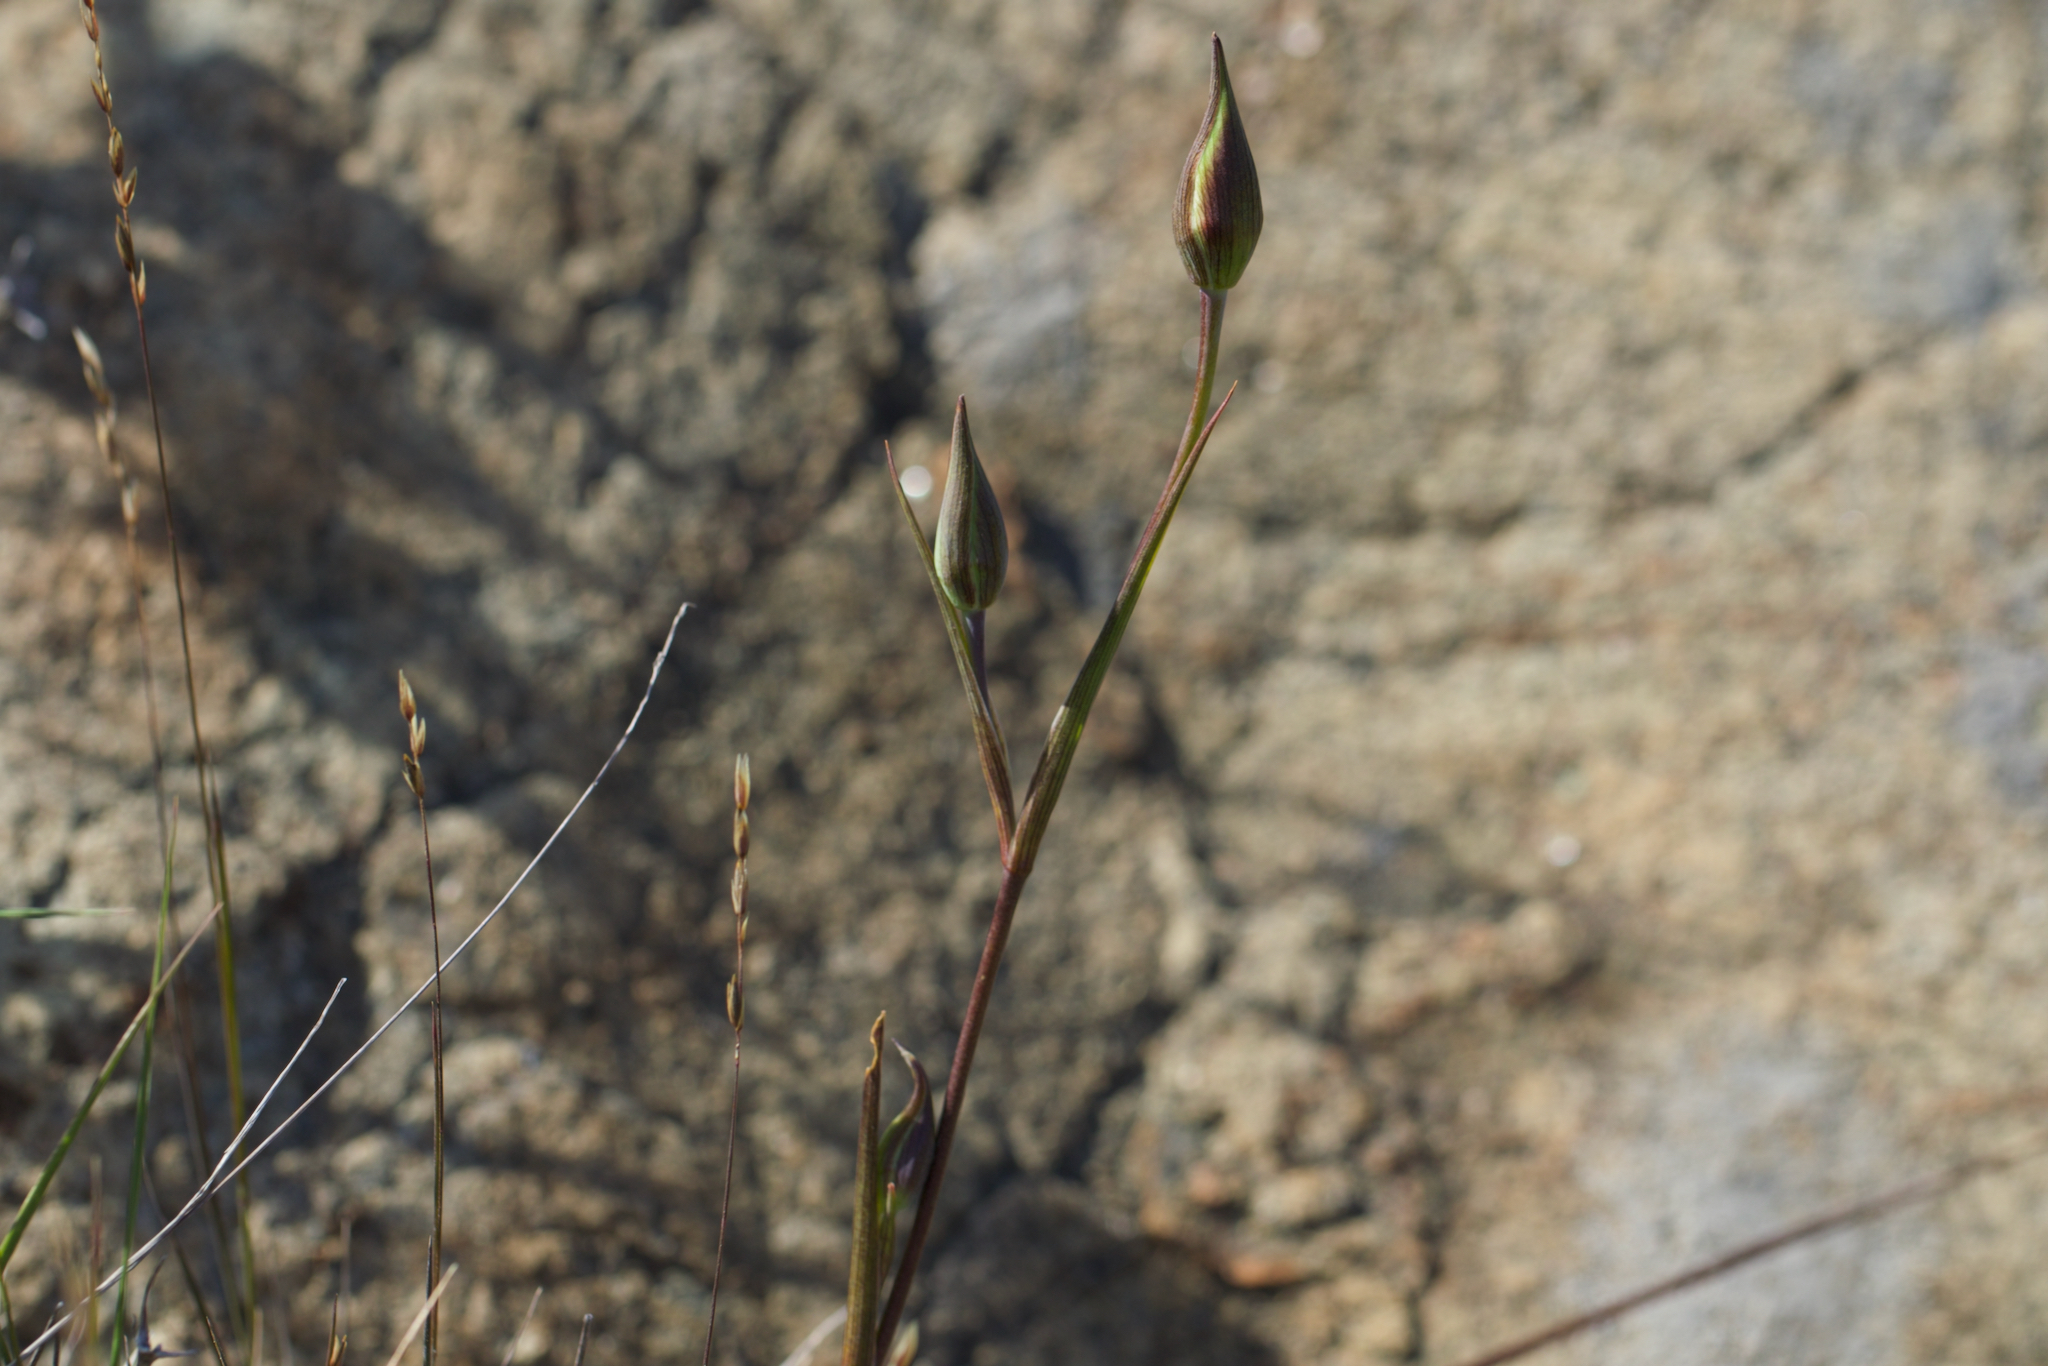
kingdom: Plantae
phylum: Tracheophyta
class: Liliopsida
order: Liliales
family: Liliaceae
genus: Calochortus
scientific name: Calochortus tiburonensis
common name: Tiburon mariposa-lily
